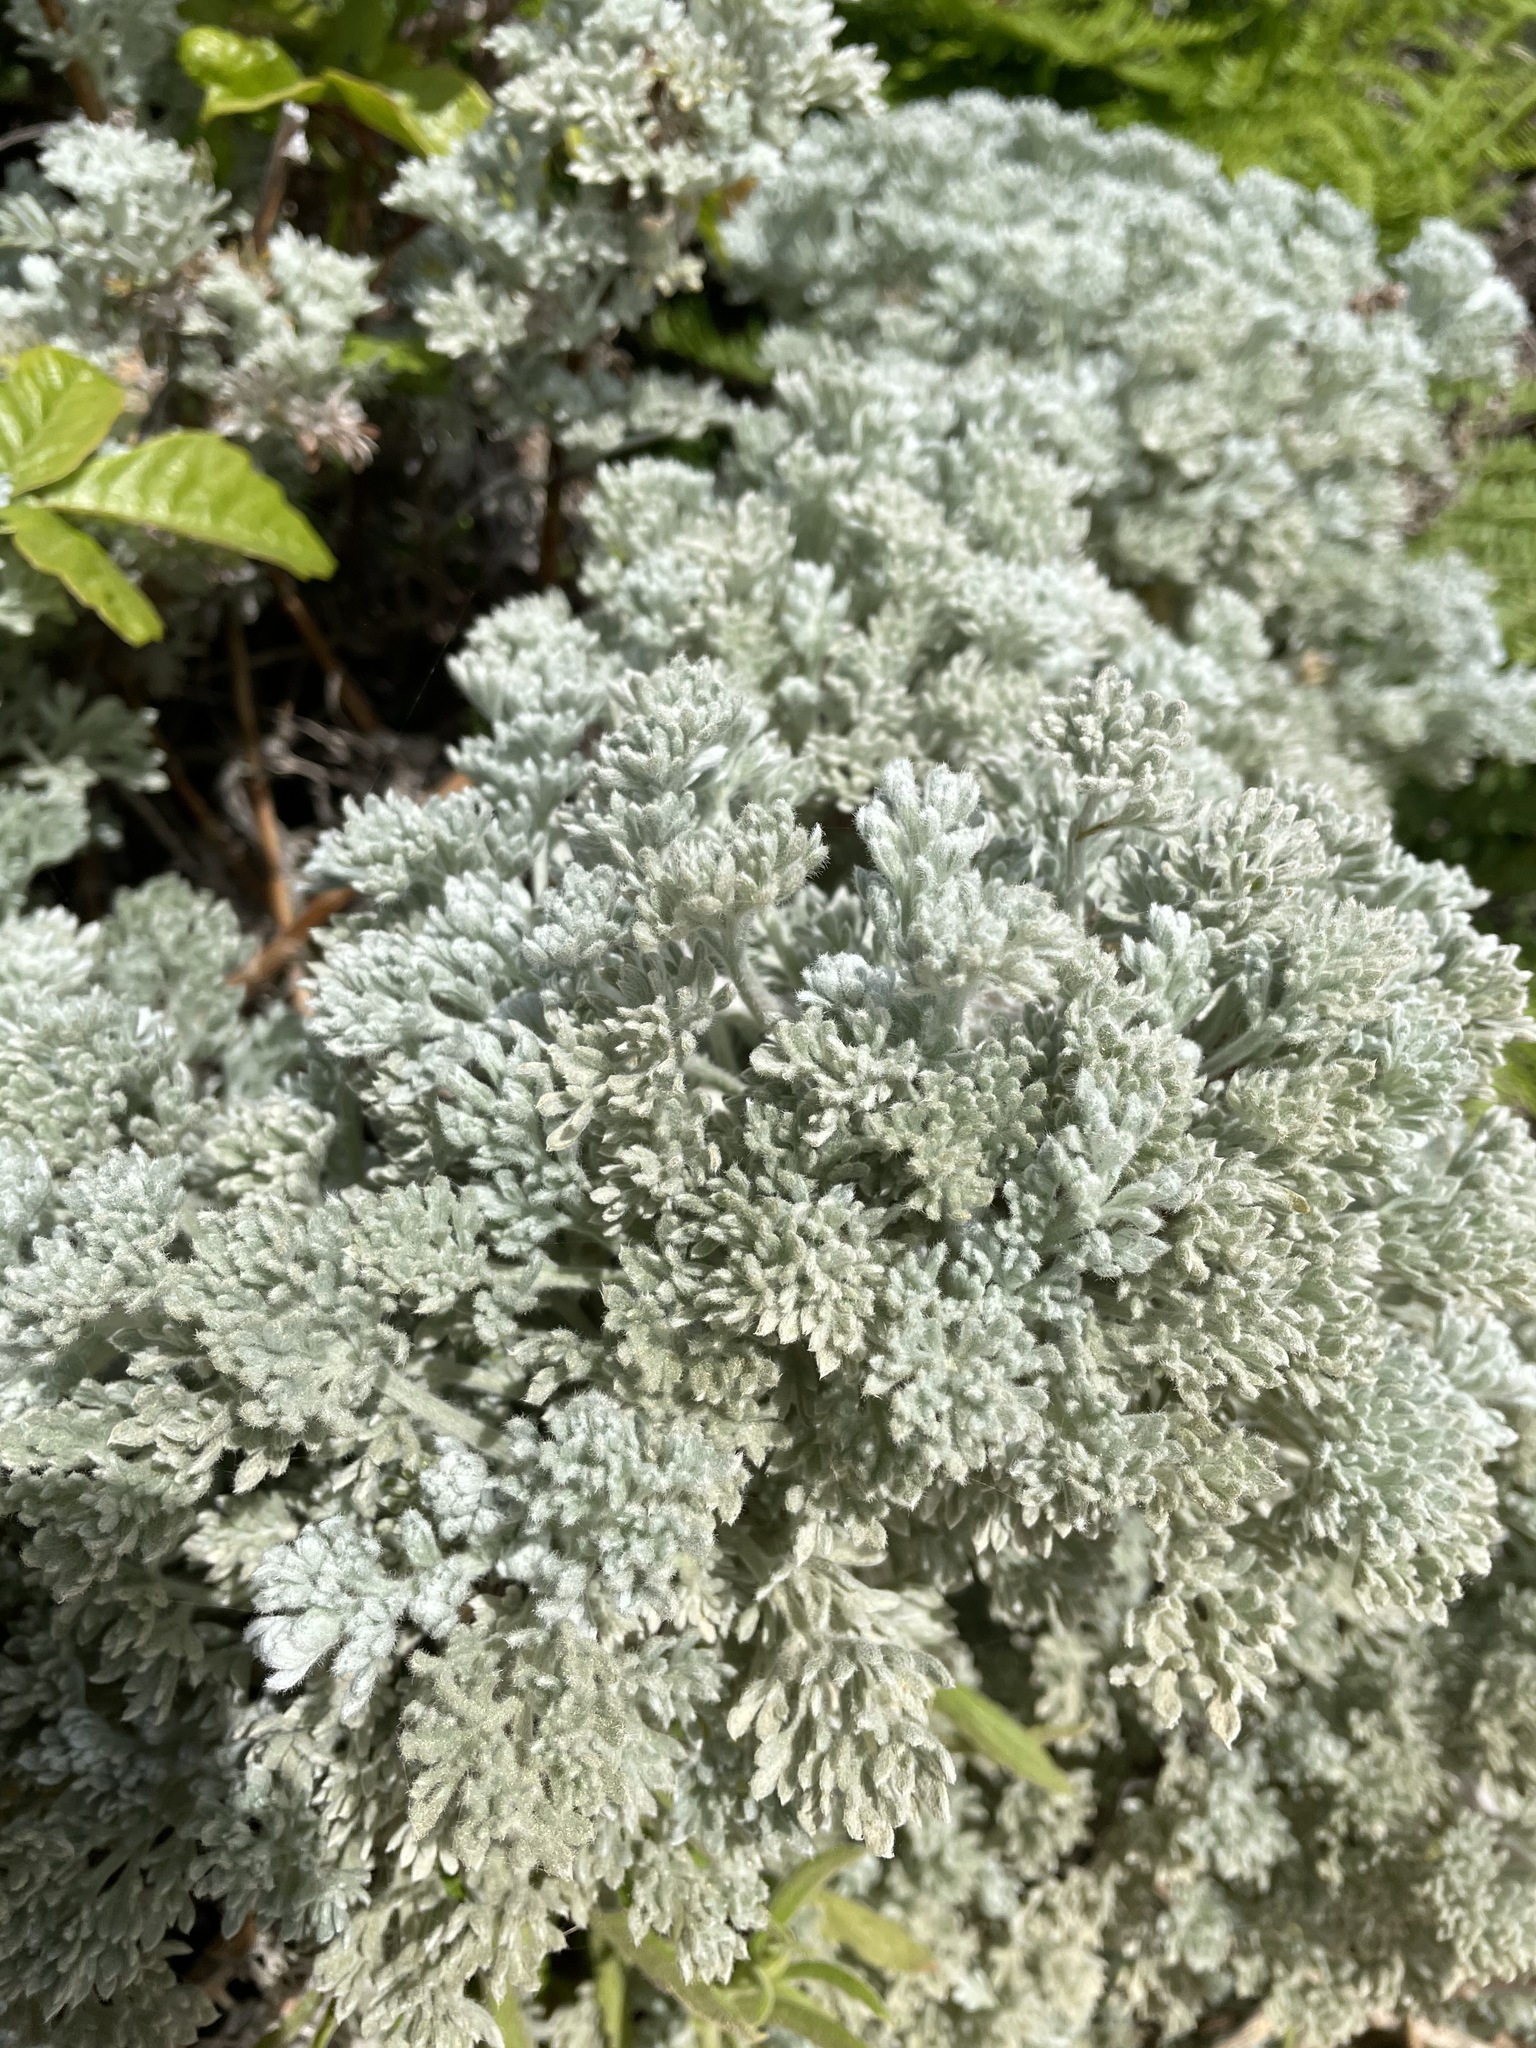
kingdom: Plantae
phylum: Tracheophyta
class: Magnoliopsida
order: Asterales
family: Asteraceae
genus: Artemisia
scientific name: Artemisia pycnocephala
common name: Coastal sagewort
